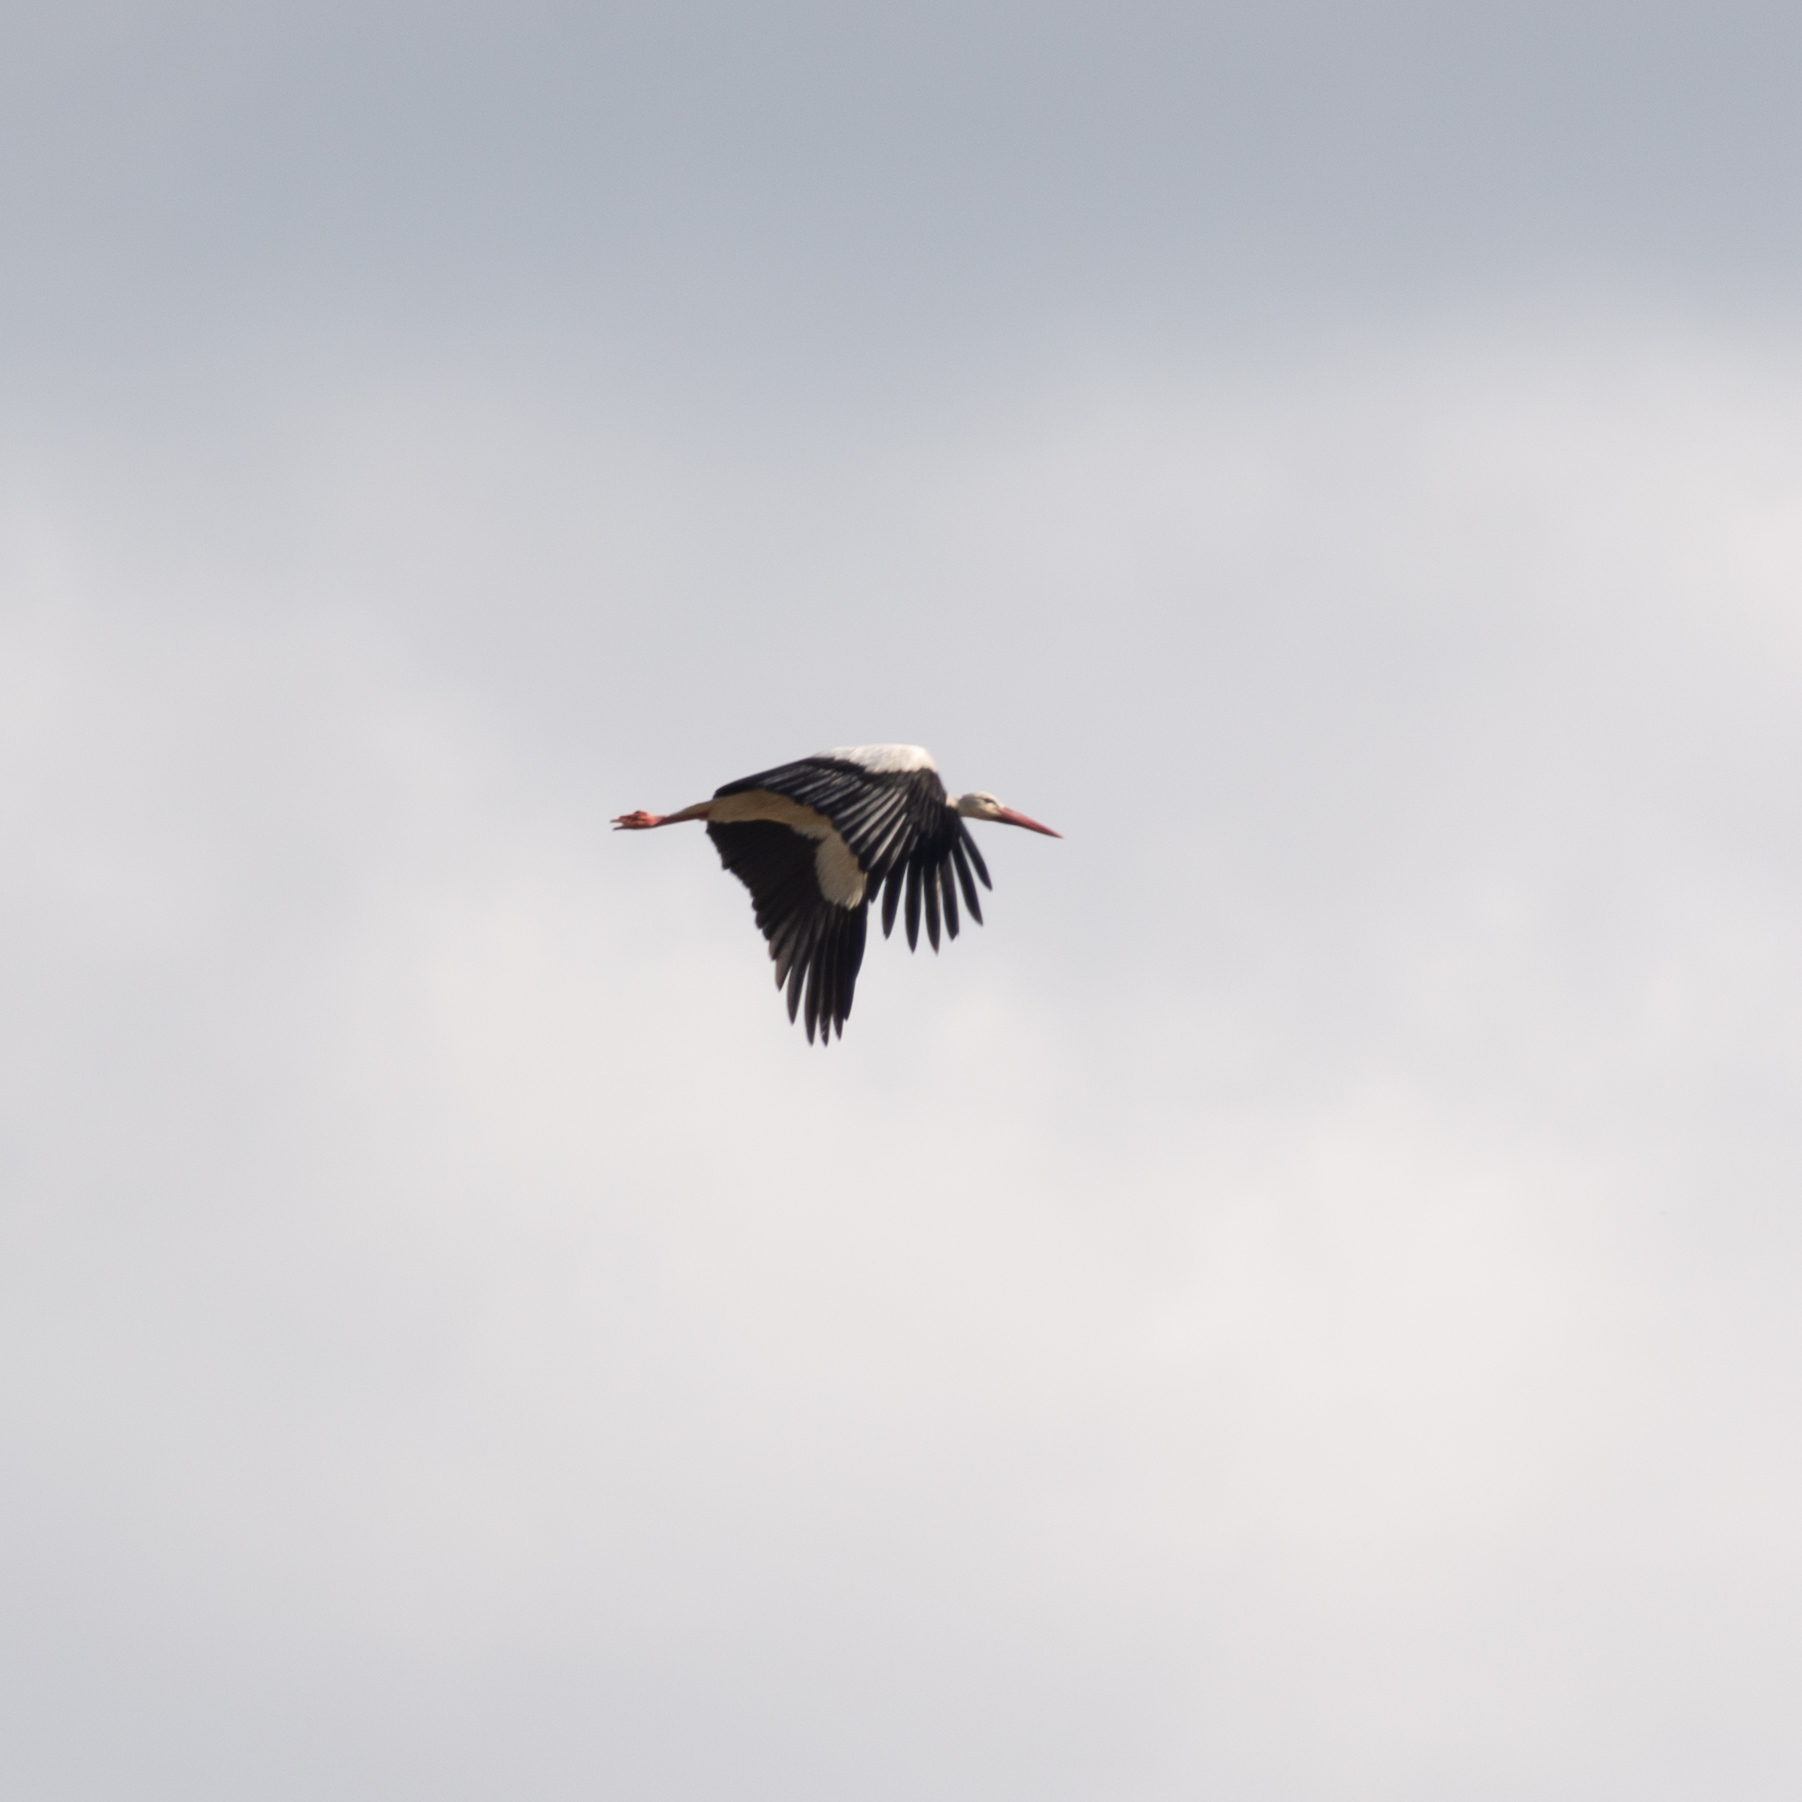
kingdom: Animalia
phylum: Chordata
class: Aves
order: Ciconiiformes
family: Ciconiidae
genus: Ciconia
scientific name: Ciconia ciconia
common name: White stork
